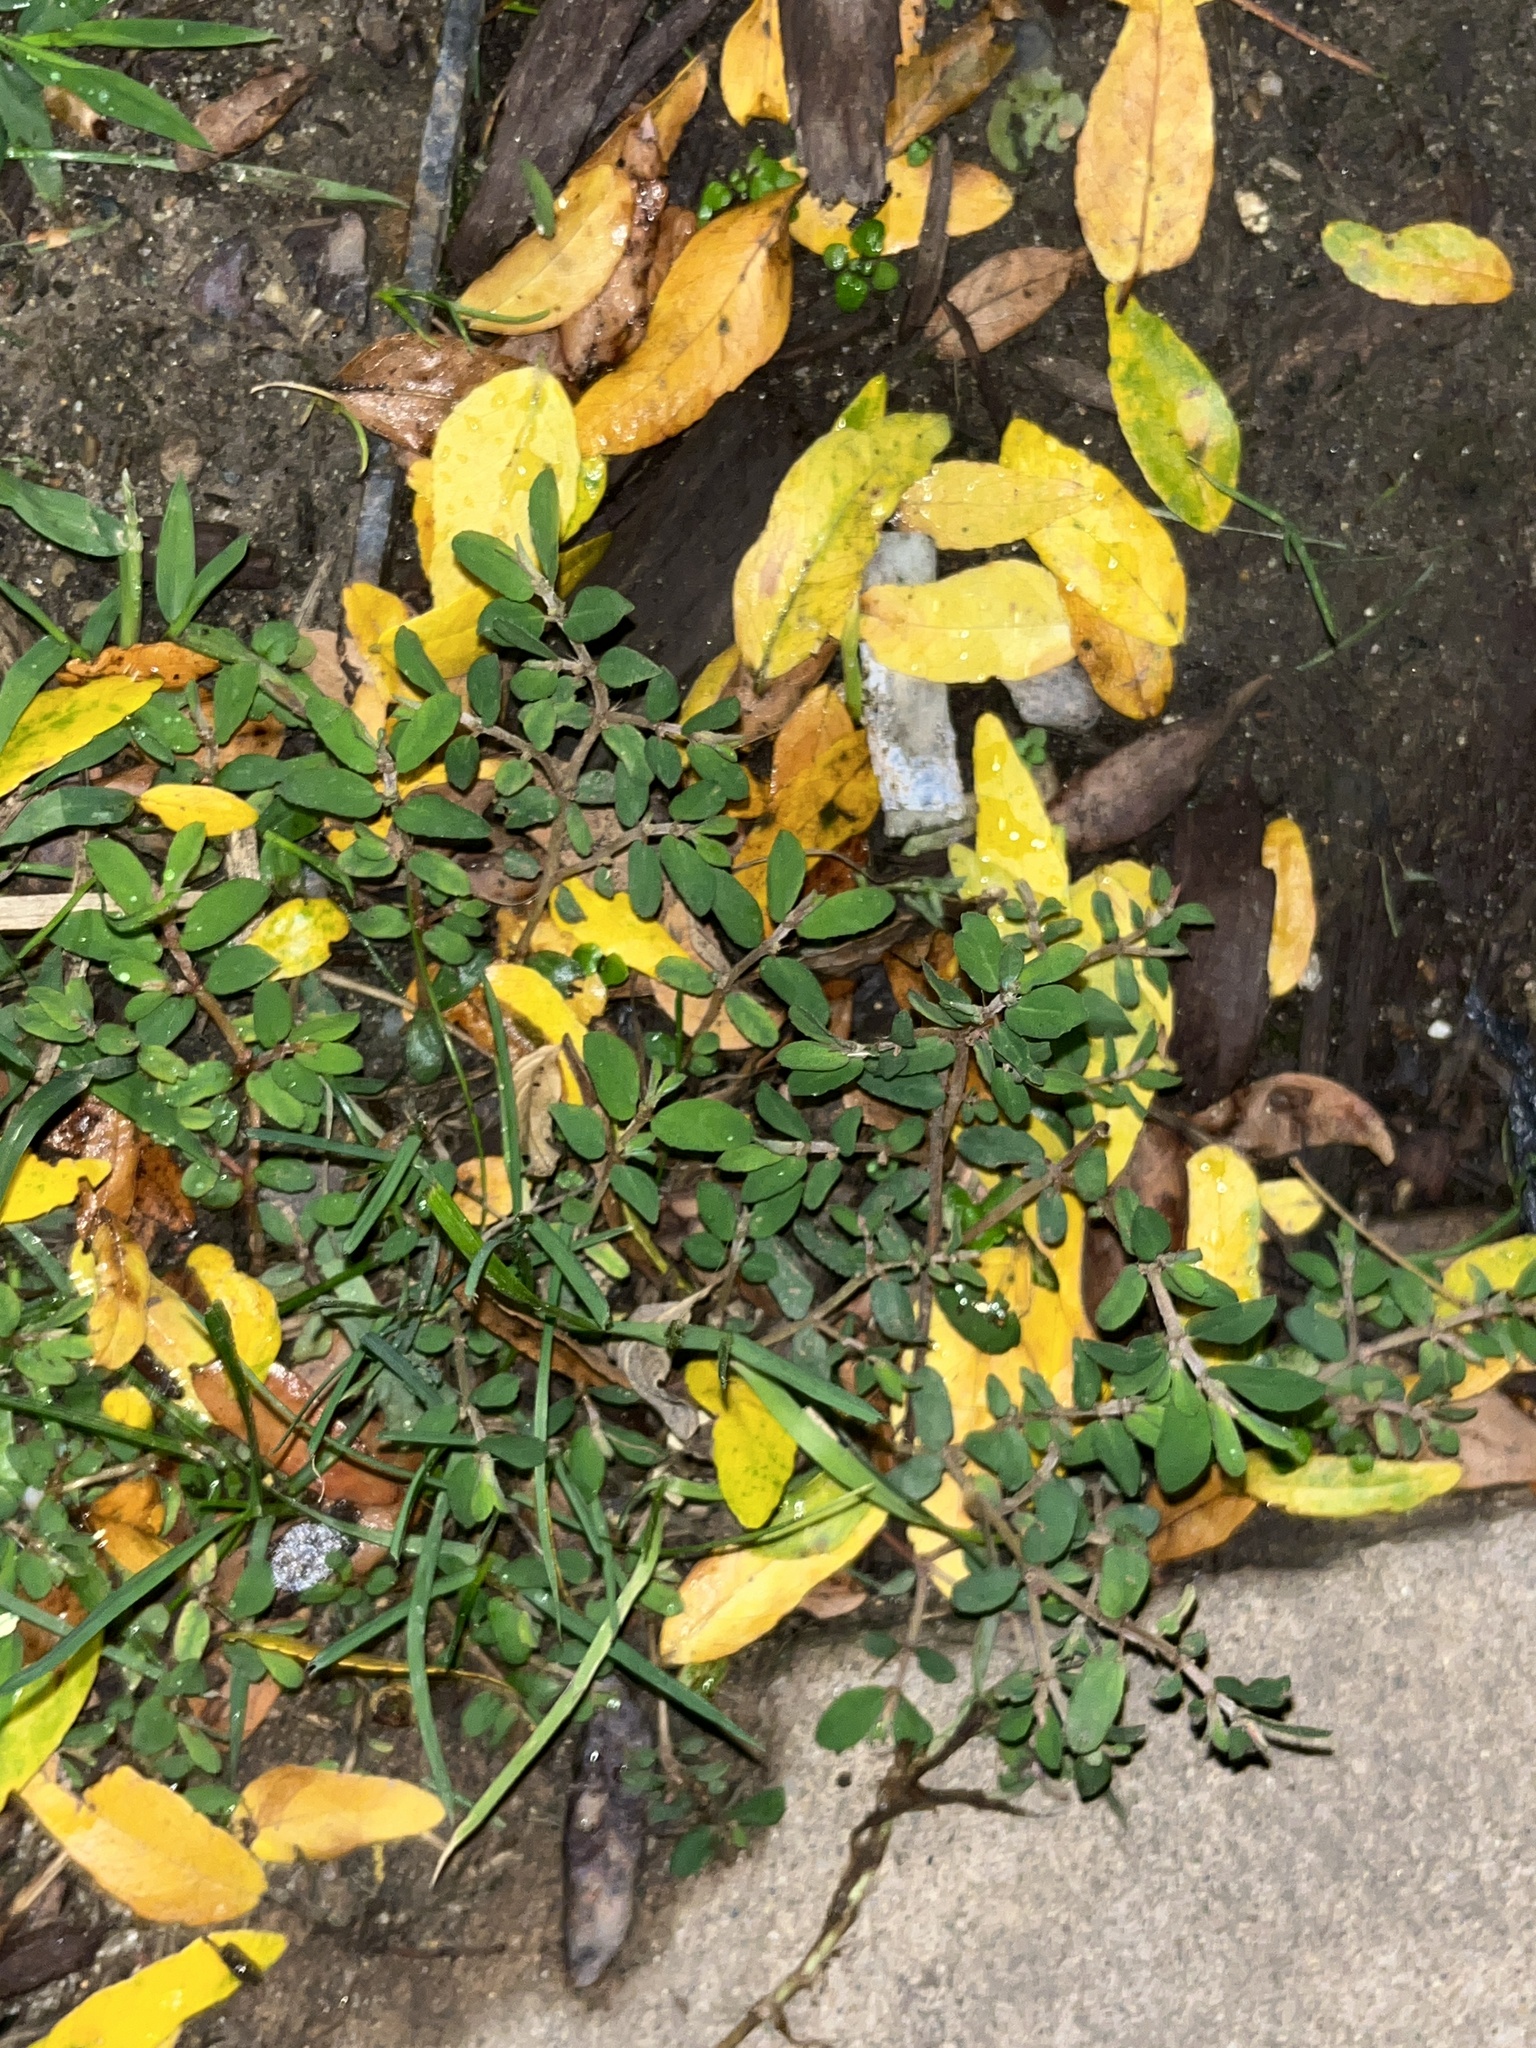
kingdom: Plantae
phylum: Tracheophyta
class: Magnoliopsida
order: Malpighiales
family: Euphorbiaceae
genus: Euphorbia
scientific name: Euphorbia maculata
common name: Spotted spurge
